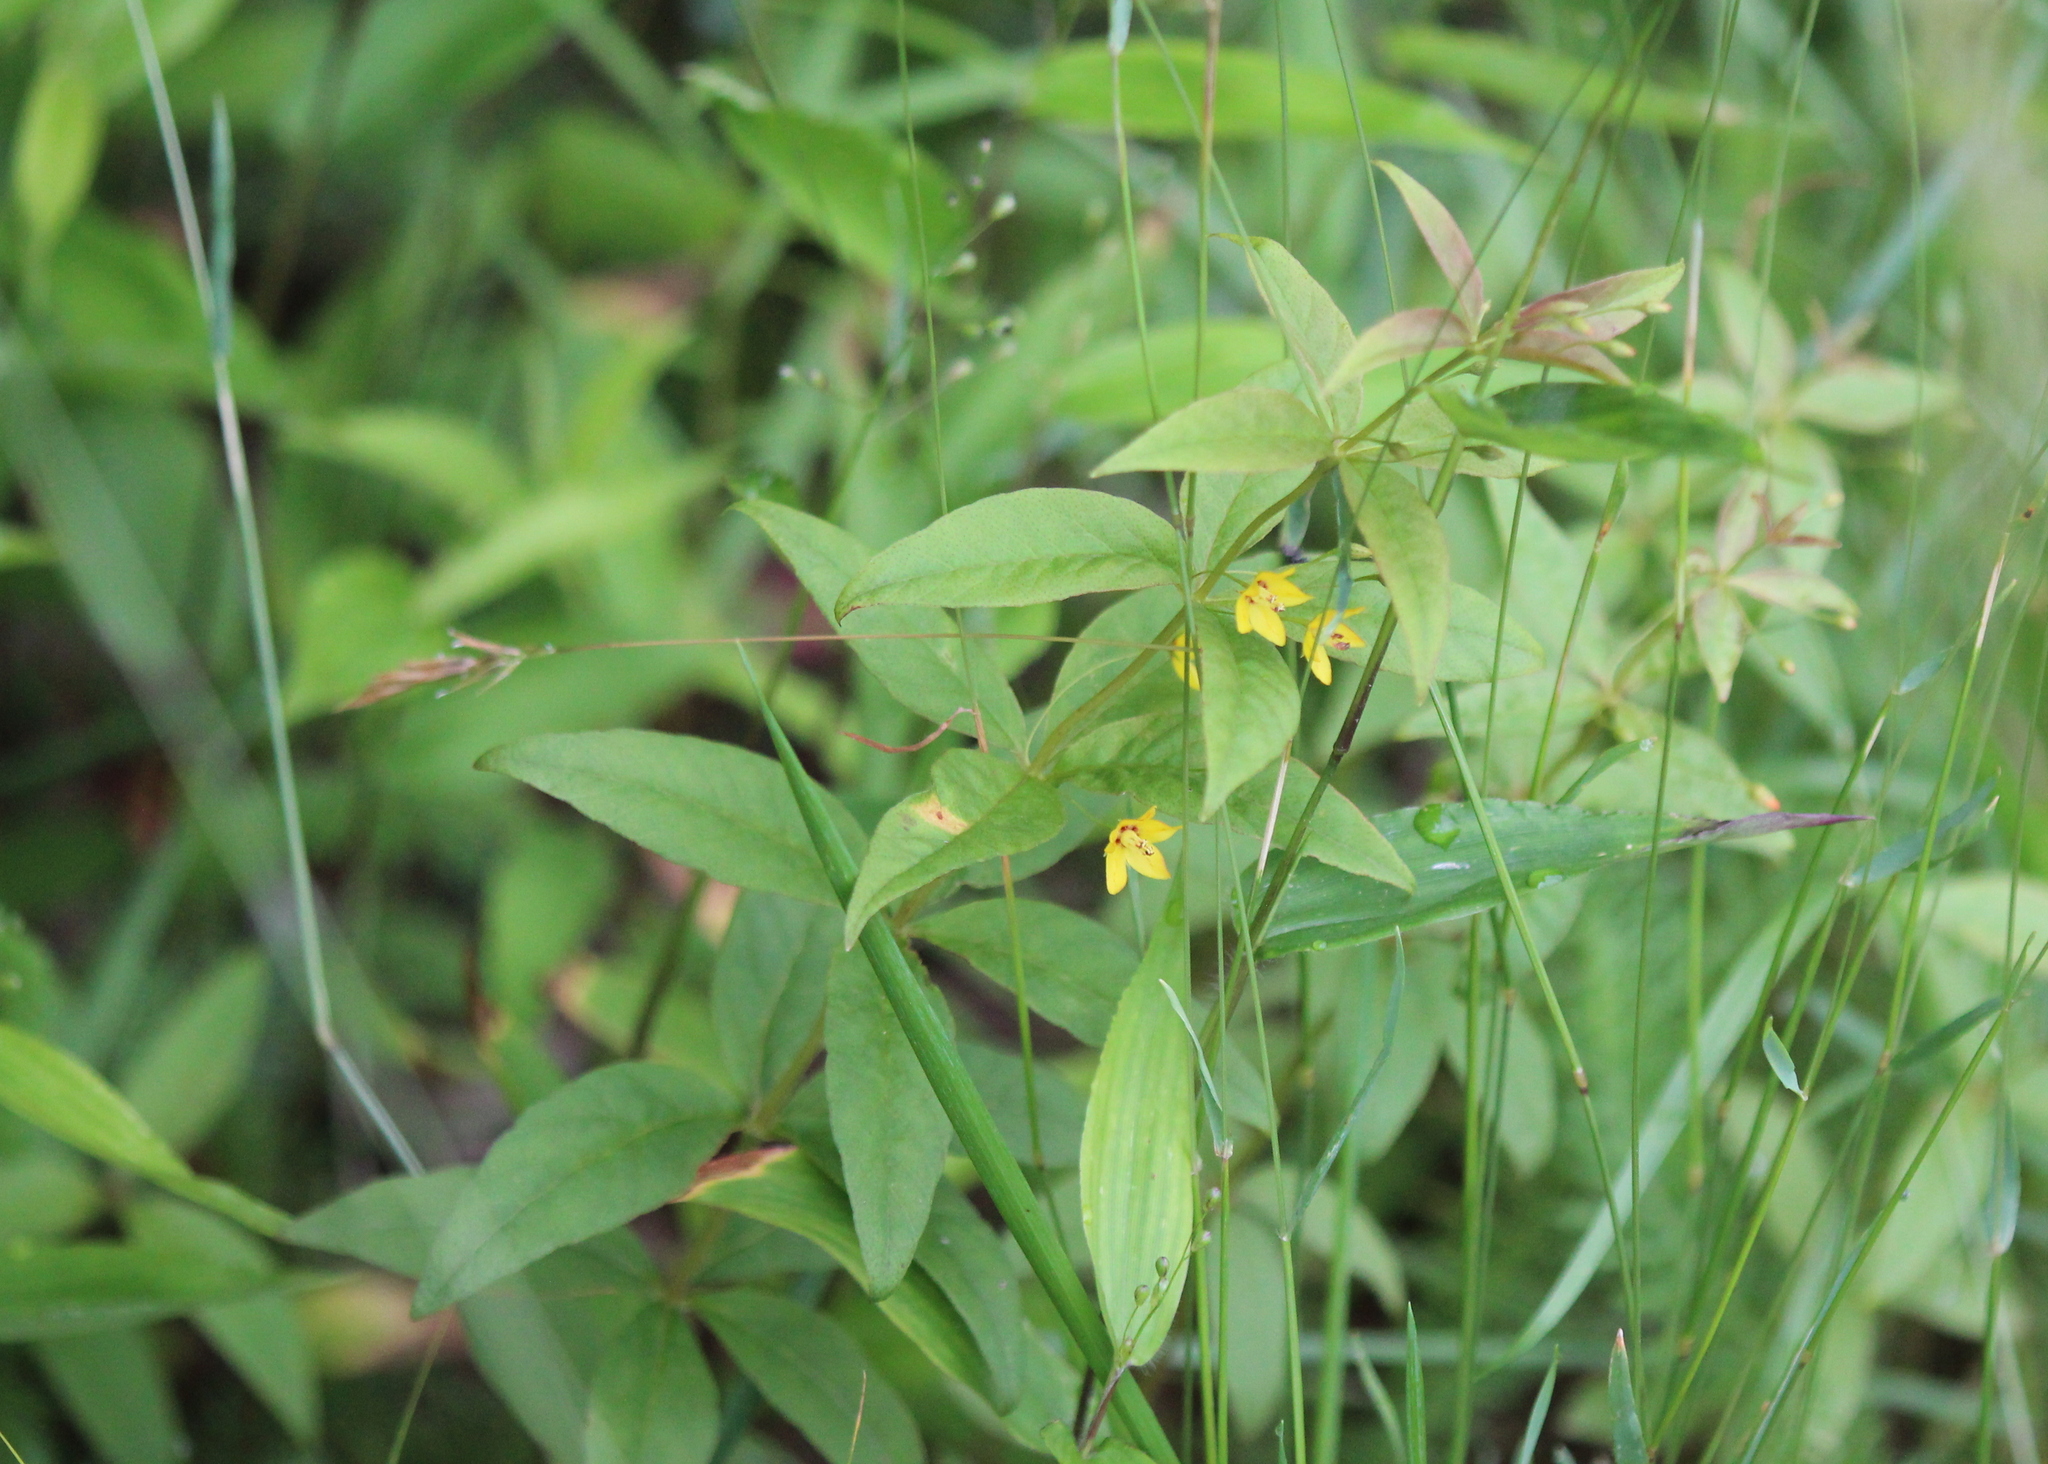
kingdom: Plantae
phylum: Tracheophyta
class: Magnoliopsida
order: Ericales
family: Primulaceae
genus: Lysimachia
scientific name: Lysimachia quadrifolia
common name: Whorled loosestrife
